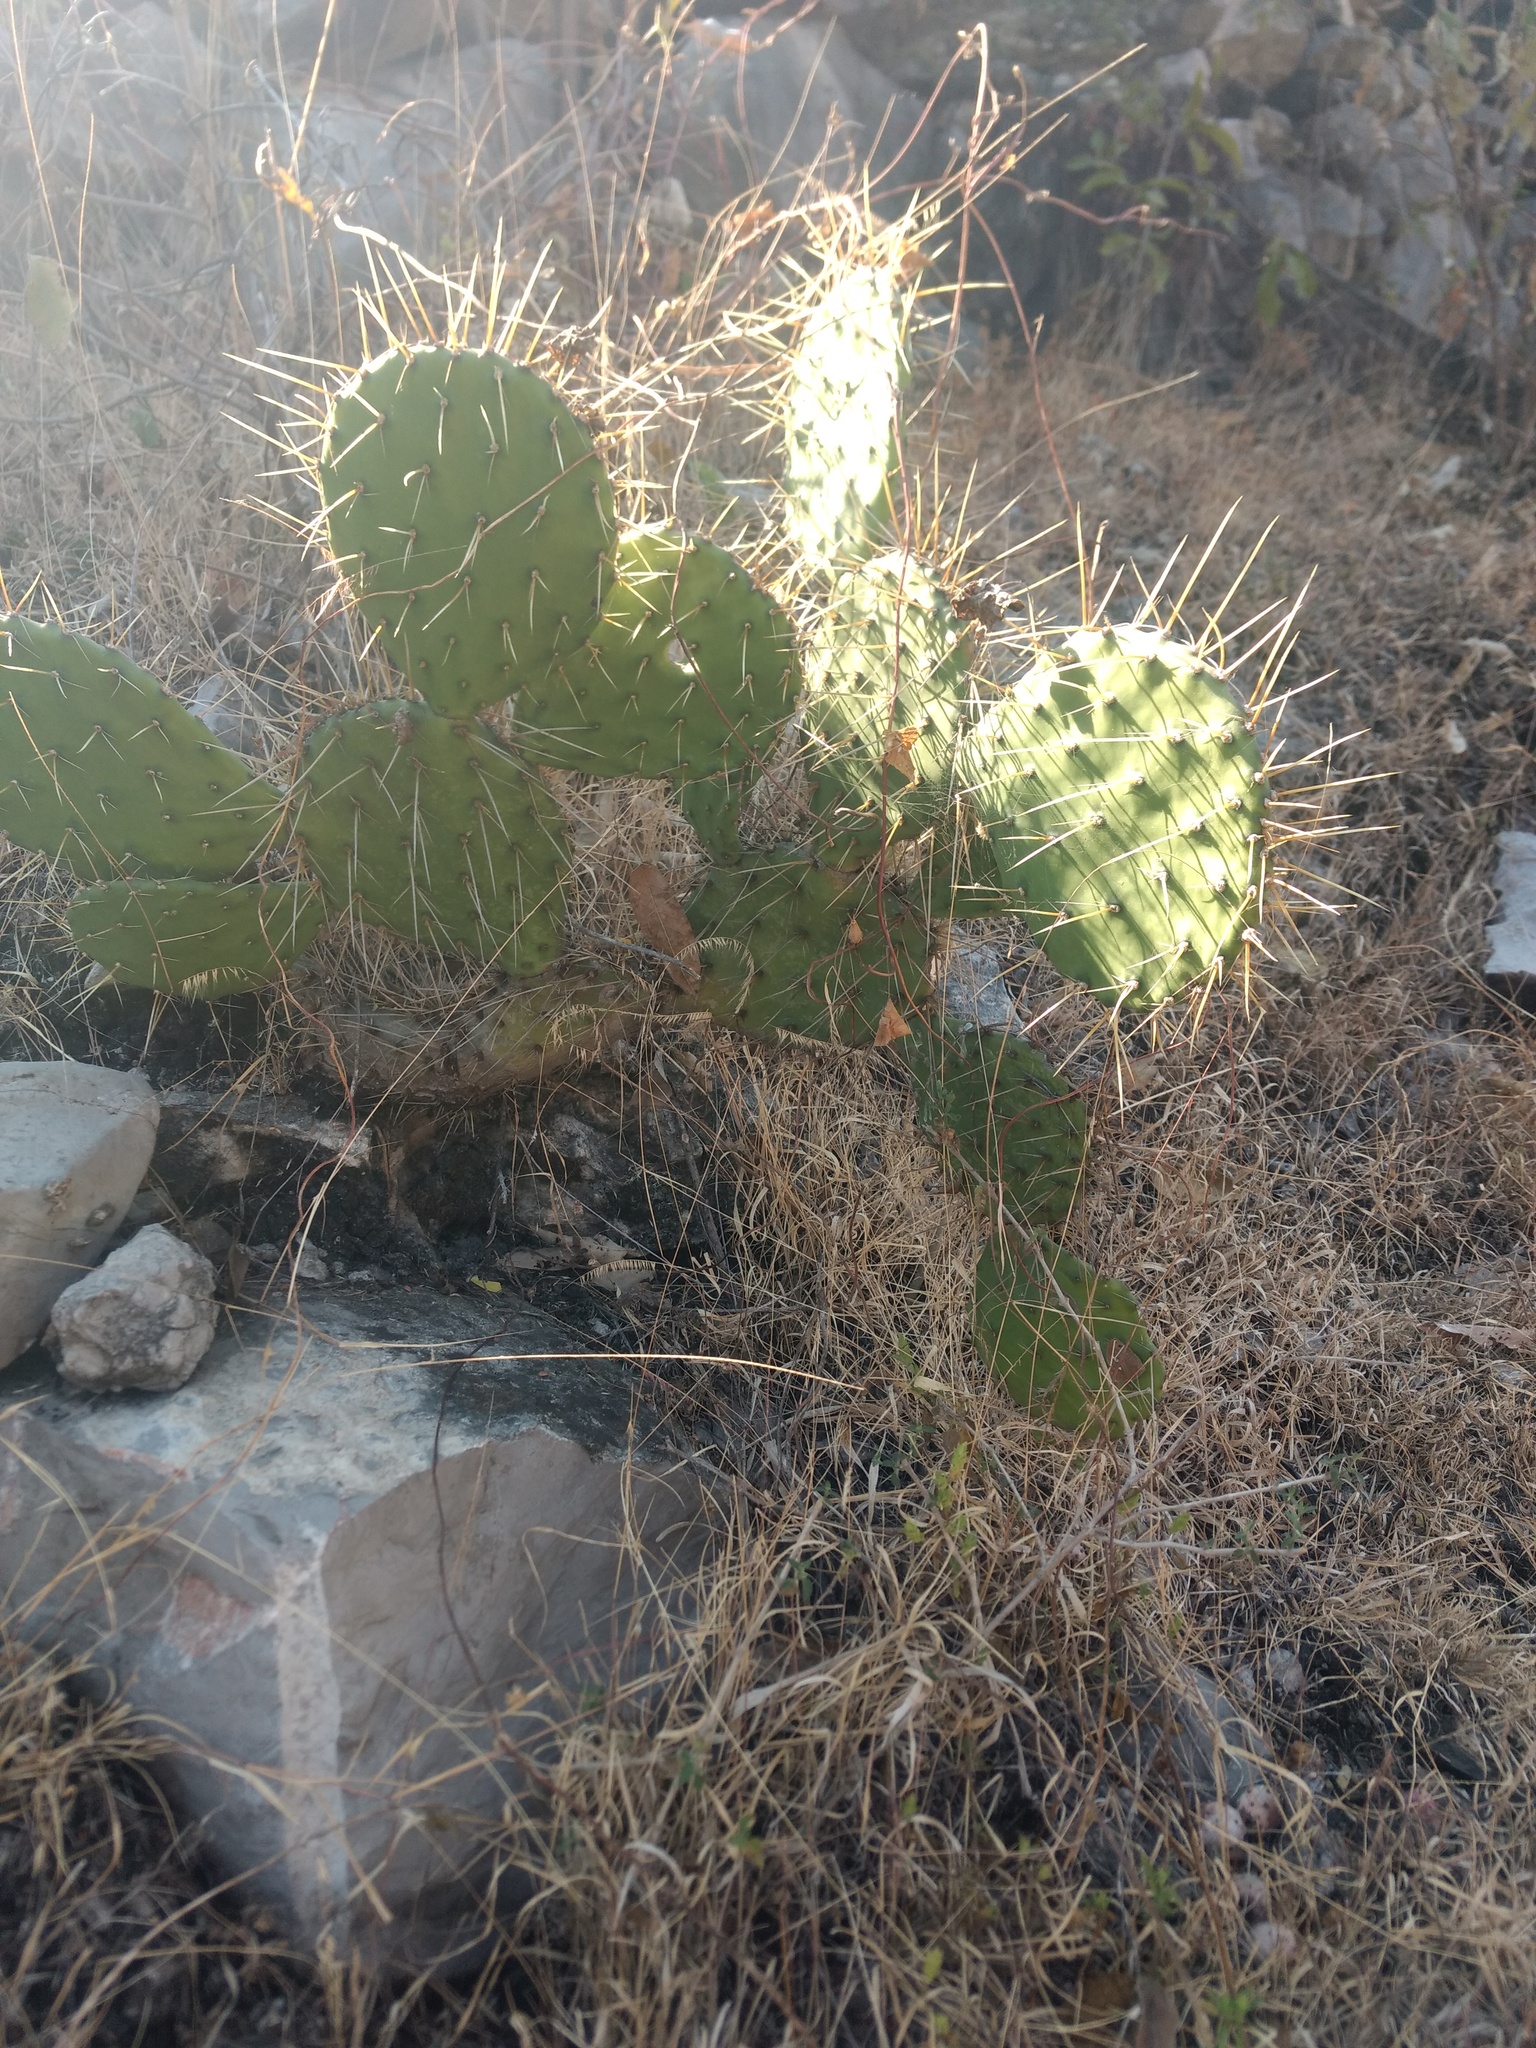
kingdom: Plantae
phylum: Tracheophyta
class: Magnoliopsida
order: Caryophyllales
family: Cactaceae
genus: Opuntia
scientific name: Opuntia depressa
